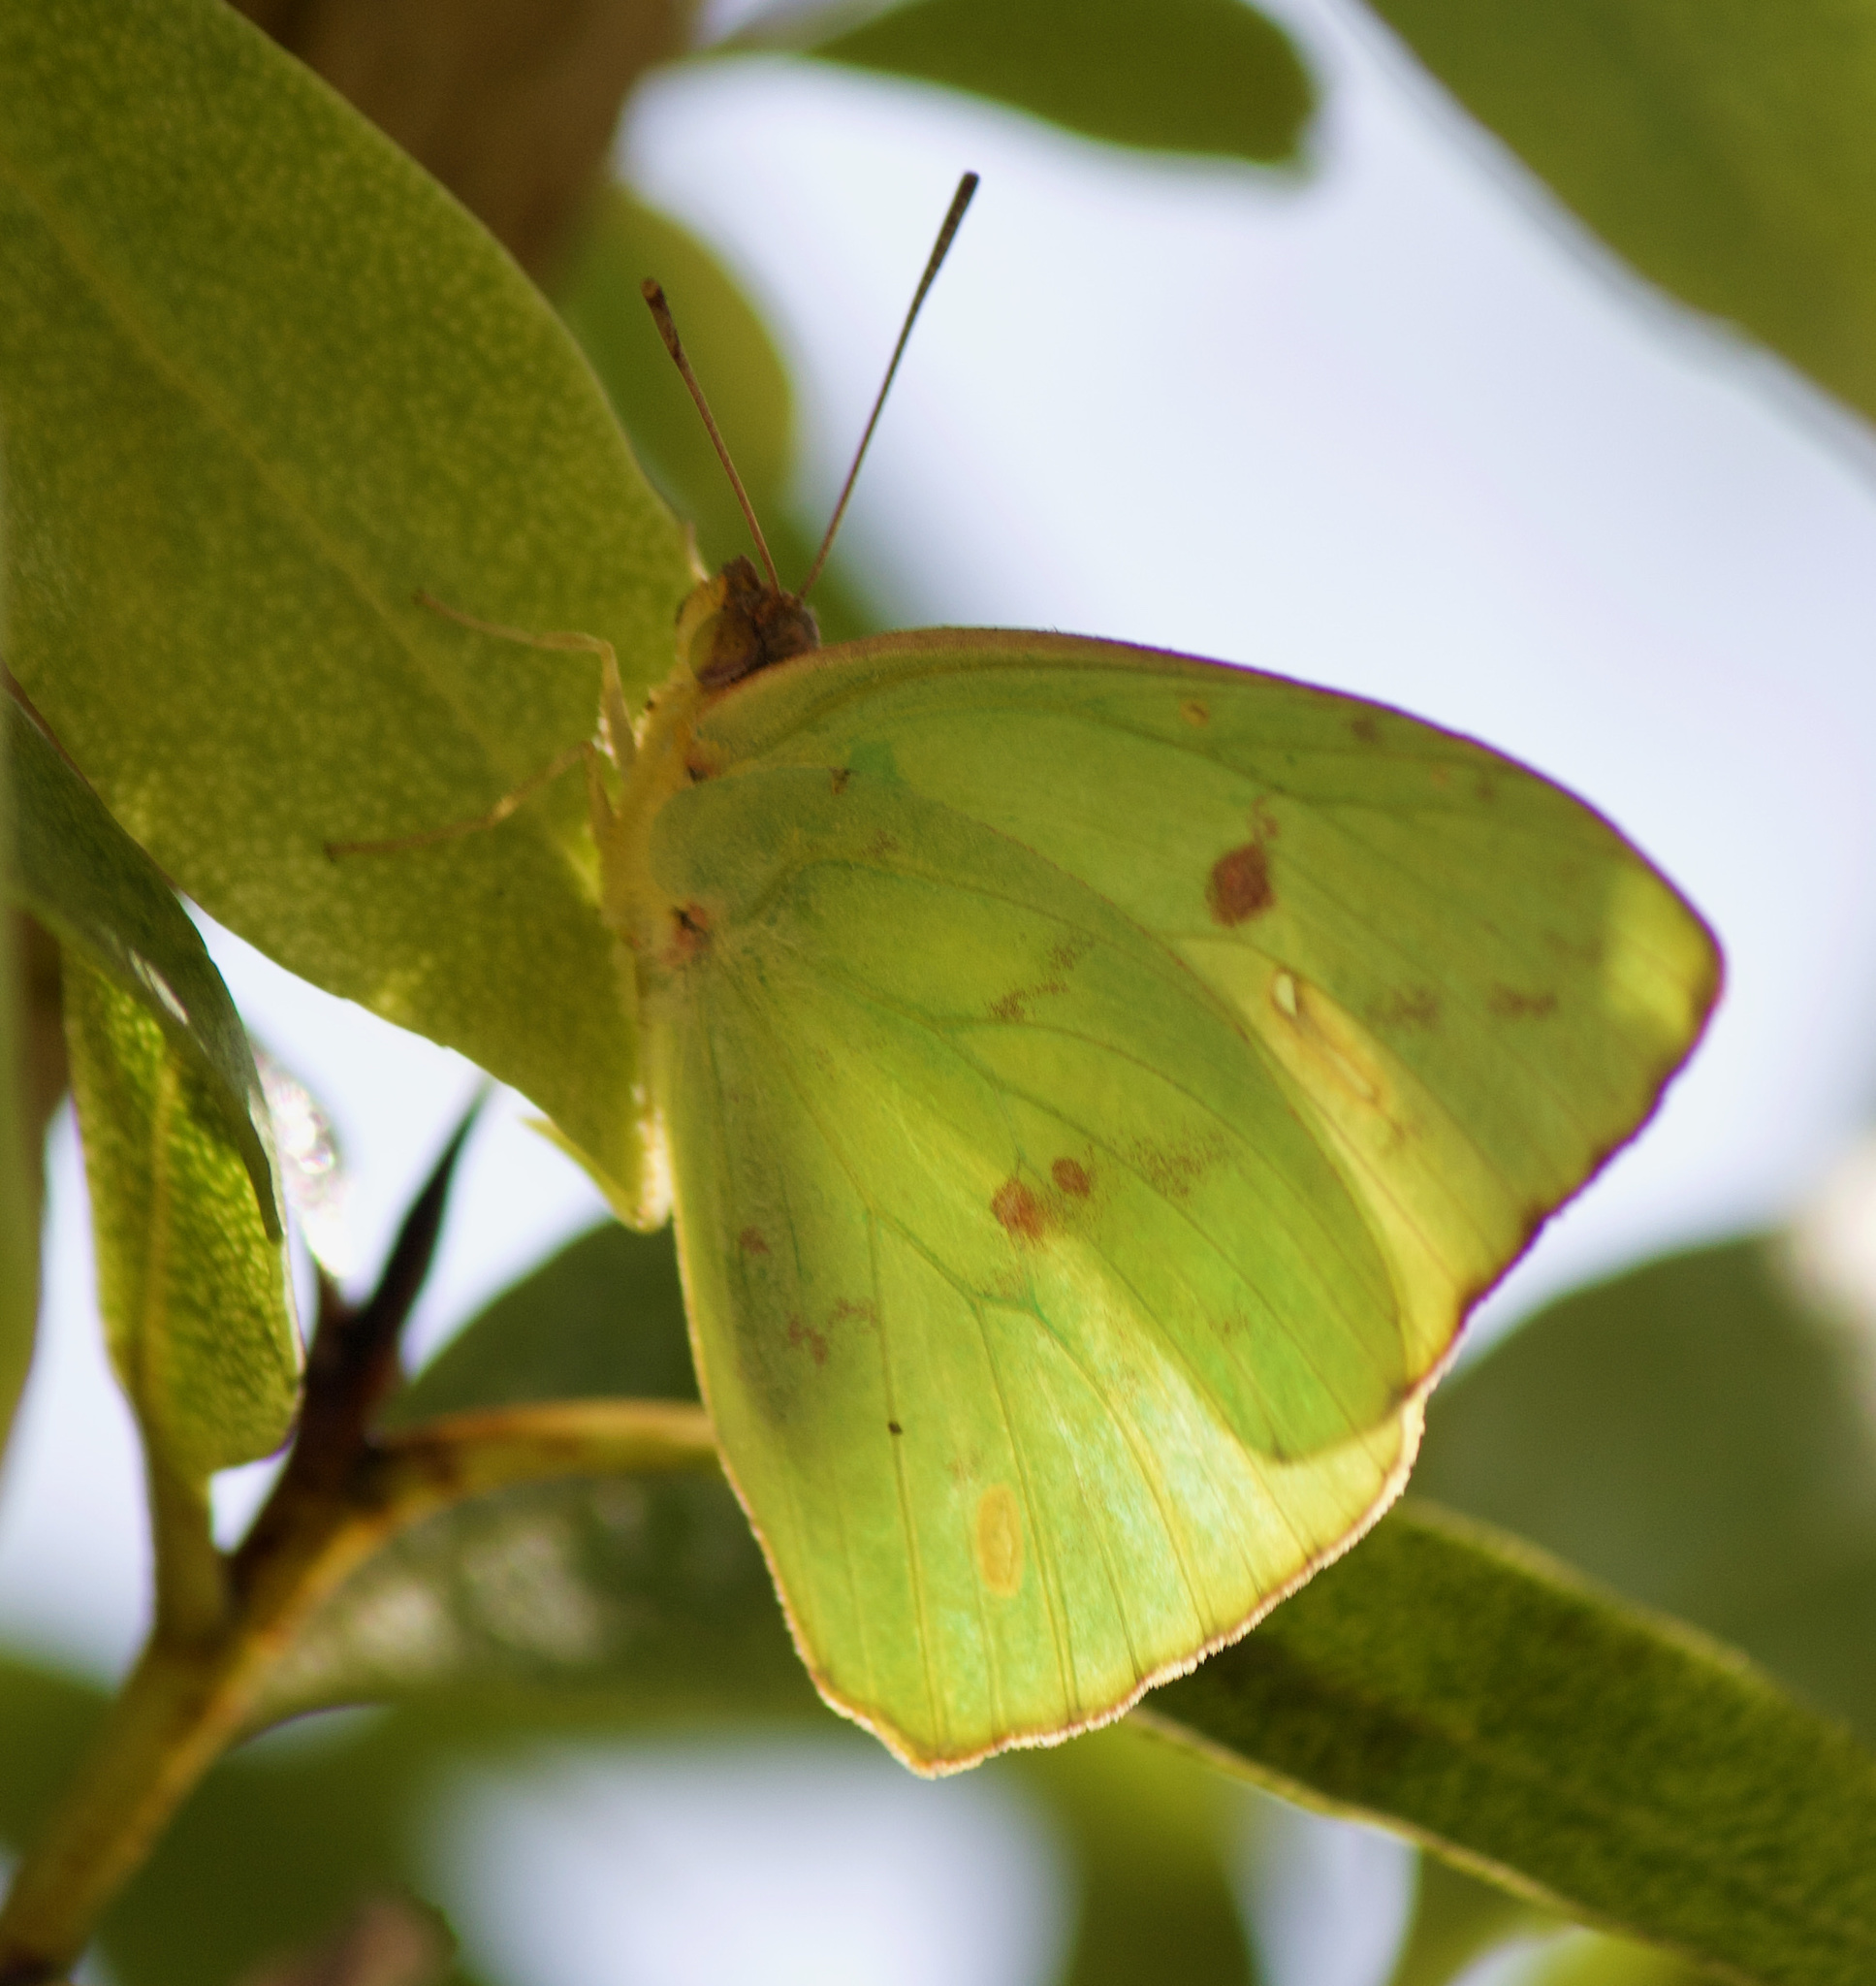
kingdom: Animalia
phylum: Arthropoda
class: Insecta
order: Lepidoptera
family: Pieridae
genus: Phoebis
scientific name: Phoebis sennae
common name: Cloudless sulphur
